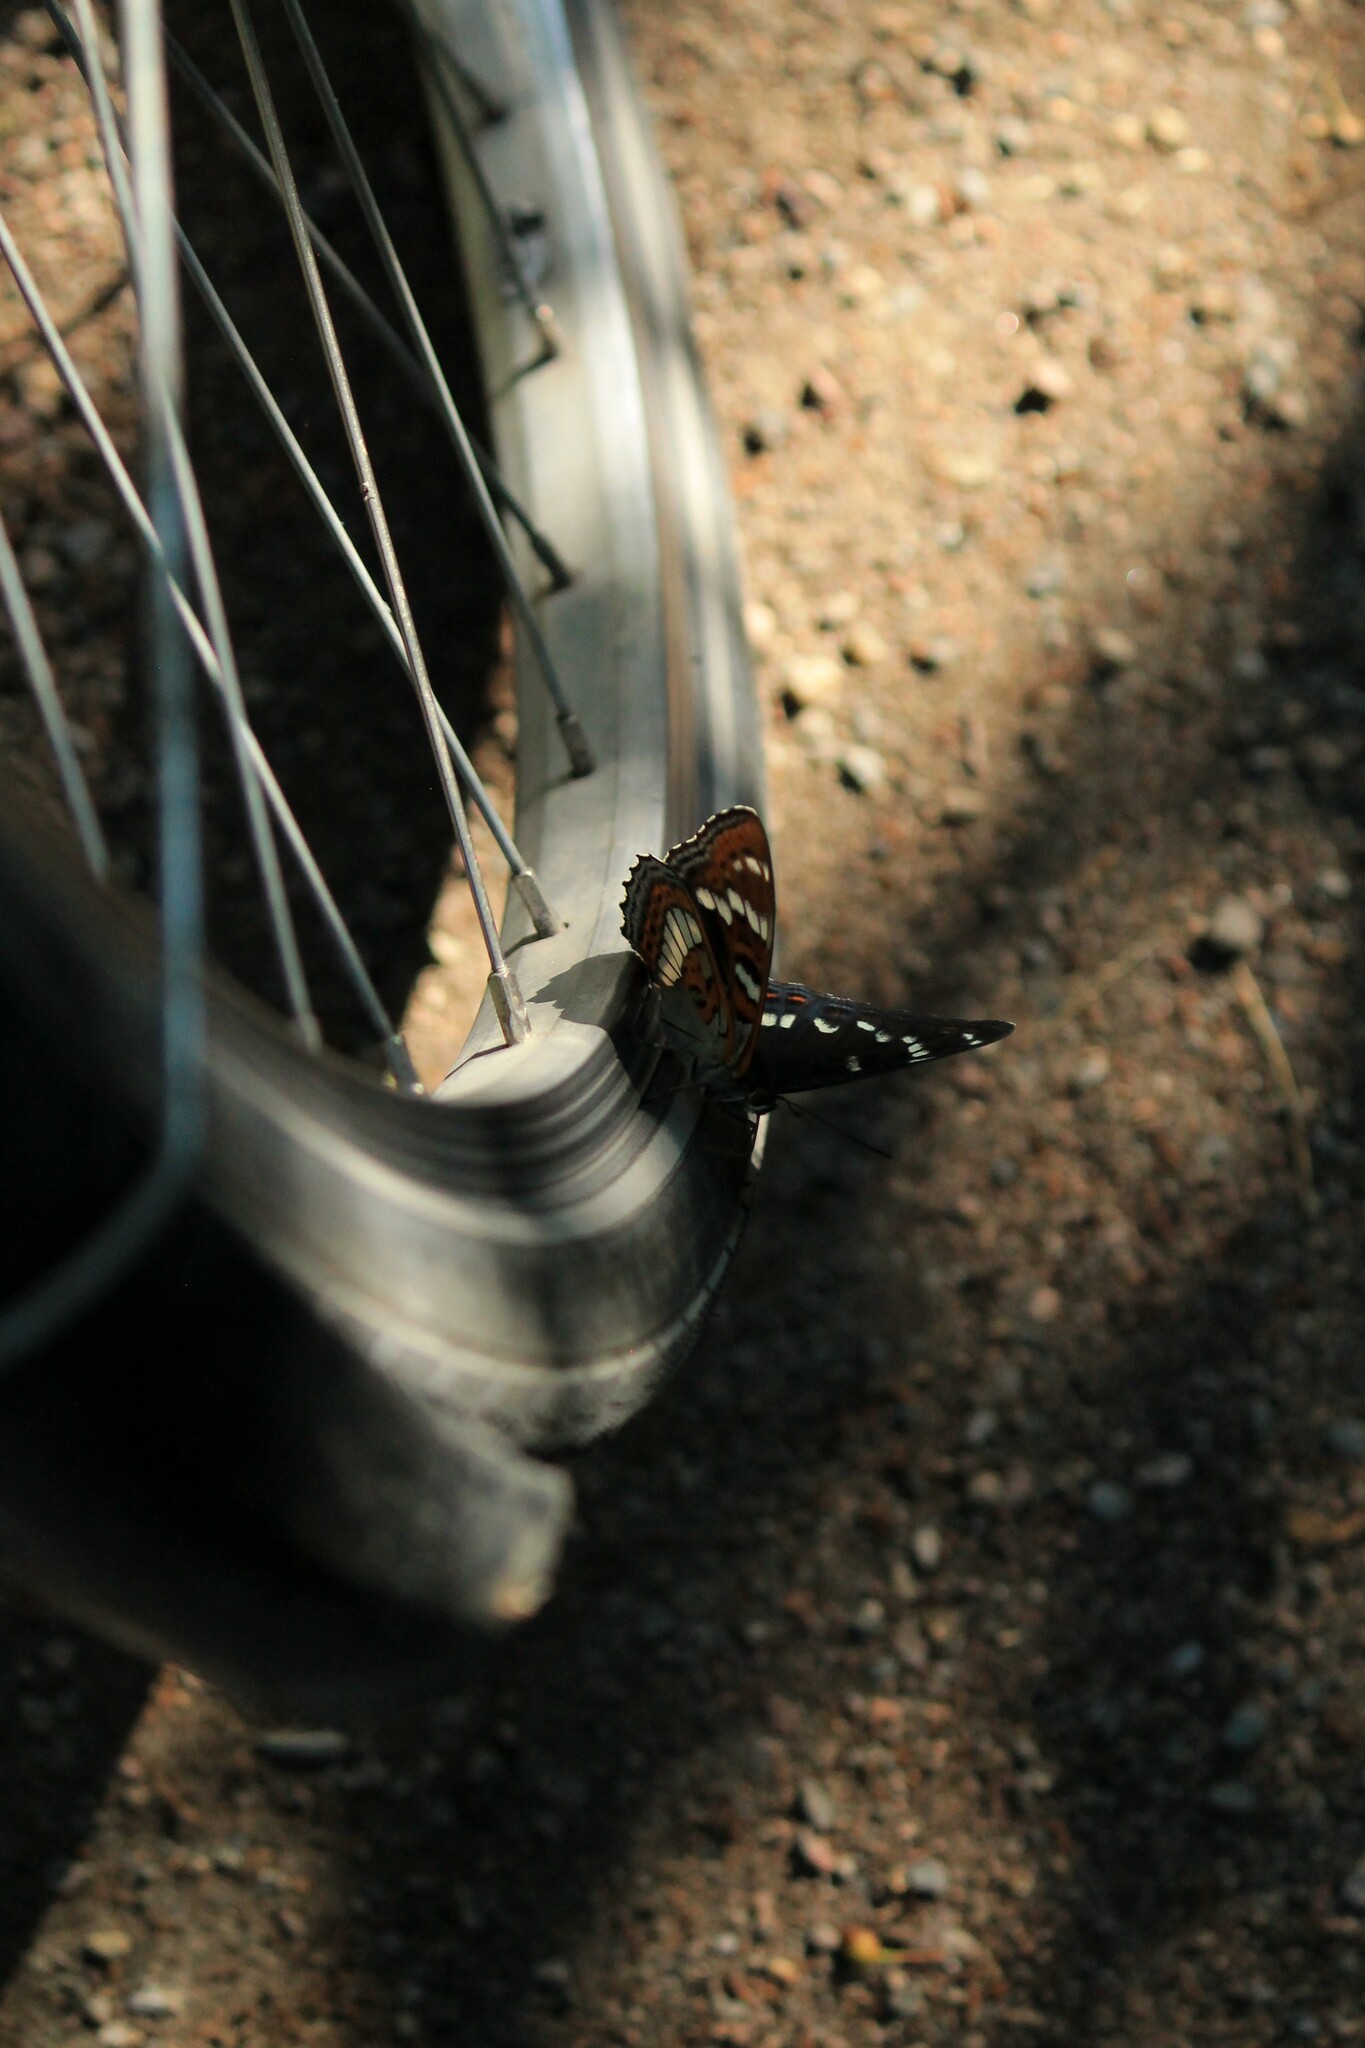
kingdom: Animalia
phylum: Arthropoda
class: Insecta
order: Lepidoptera
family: Nymphalidae
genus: Limenitis
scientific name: Limenitis populi
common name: Poplar admiral
